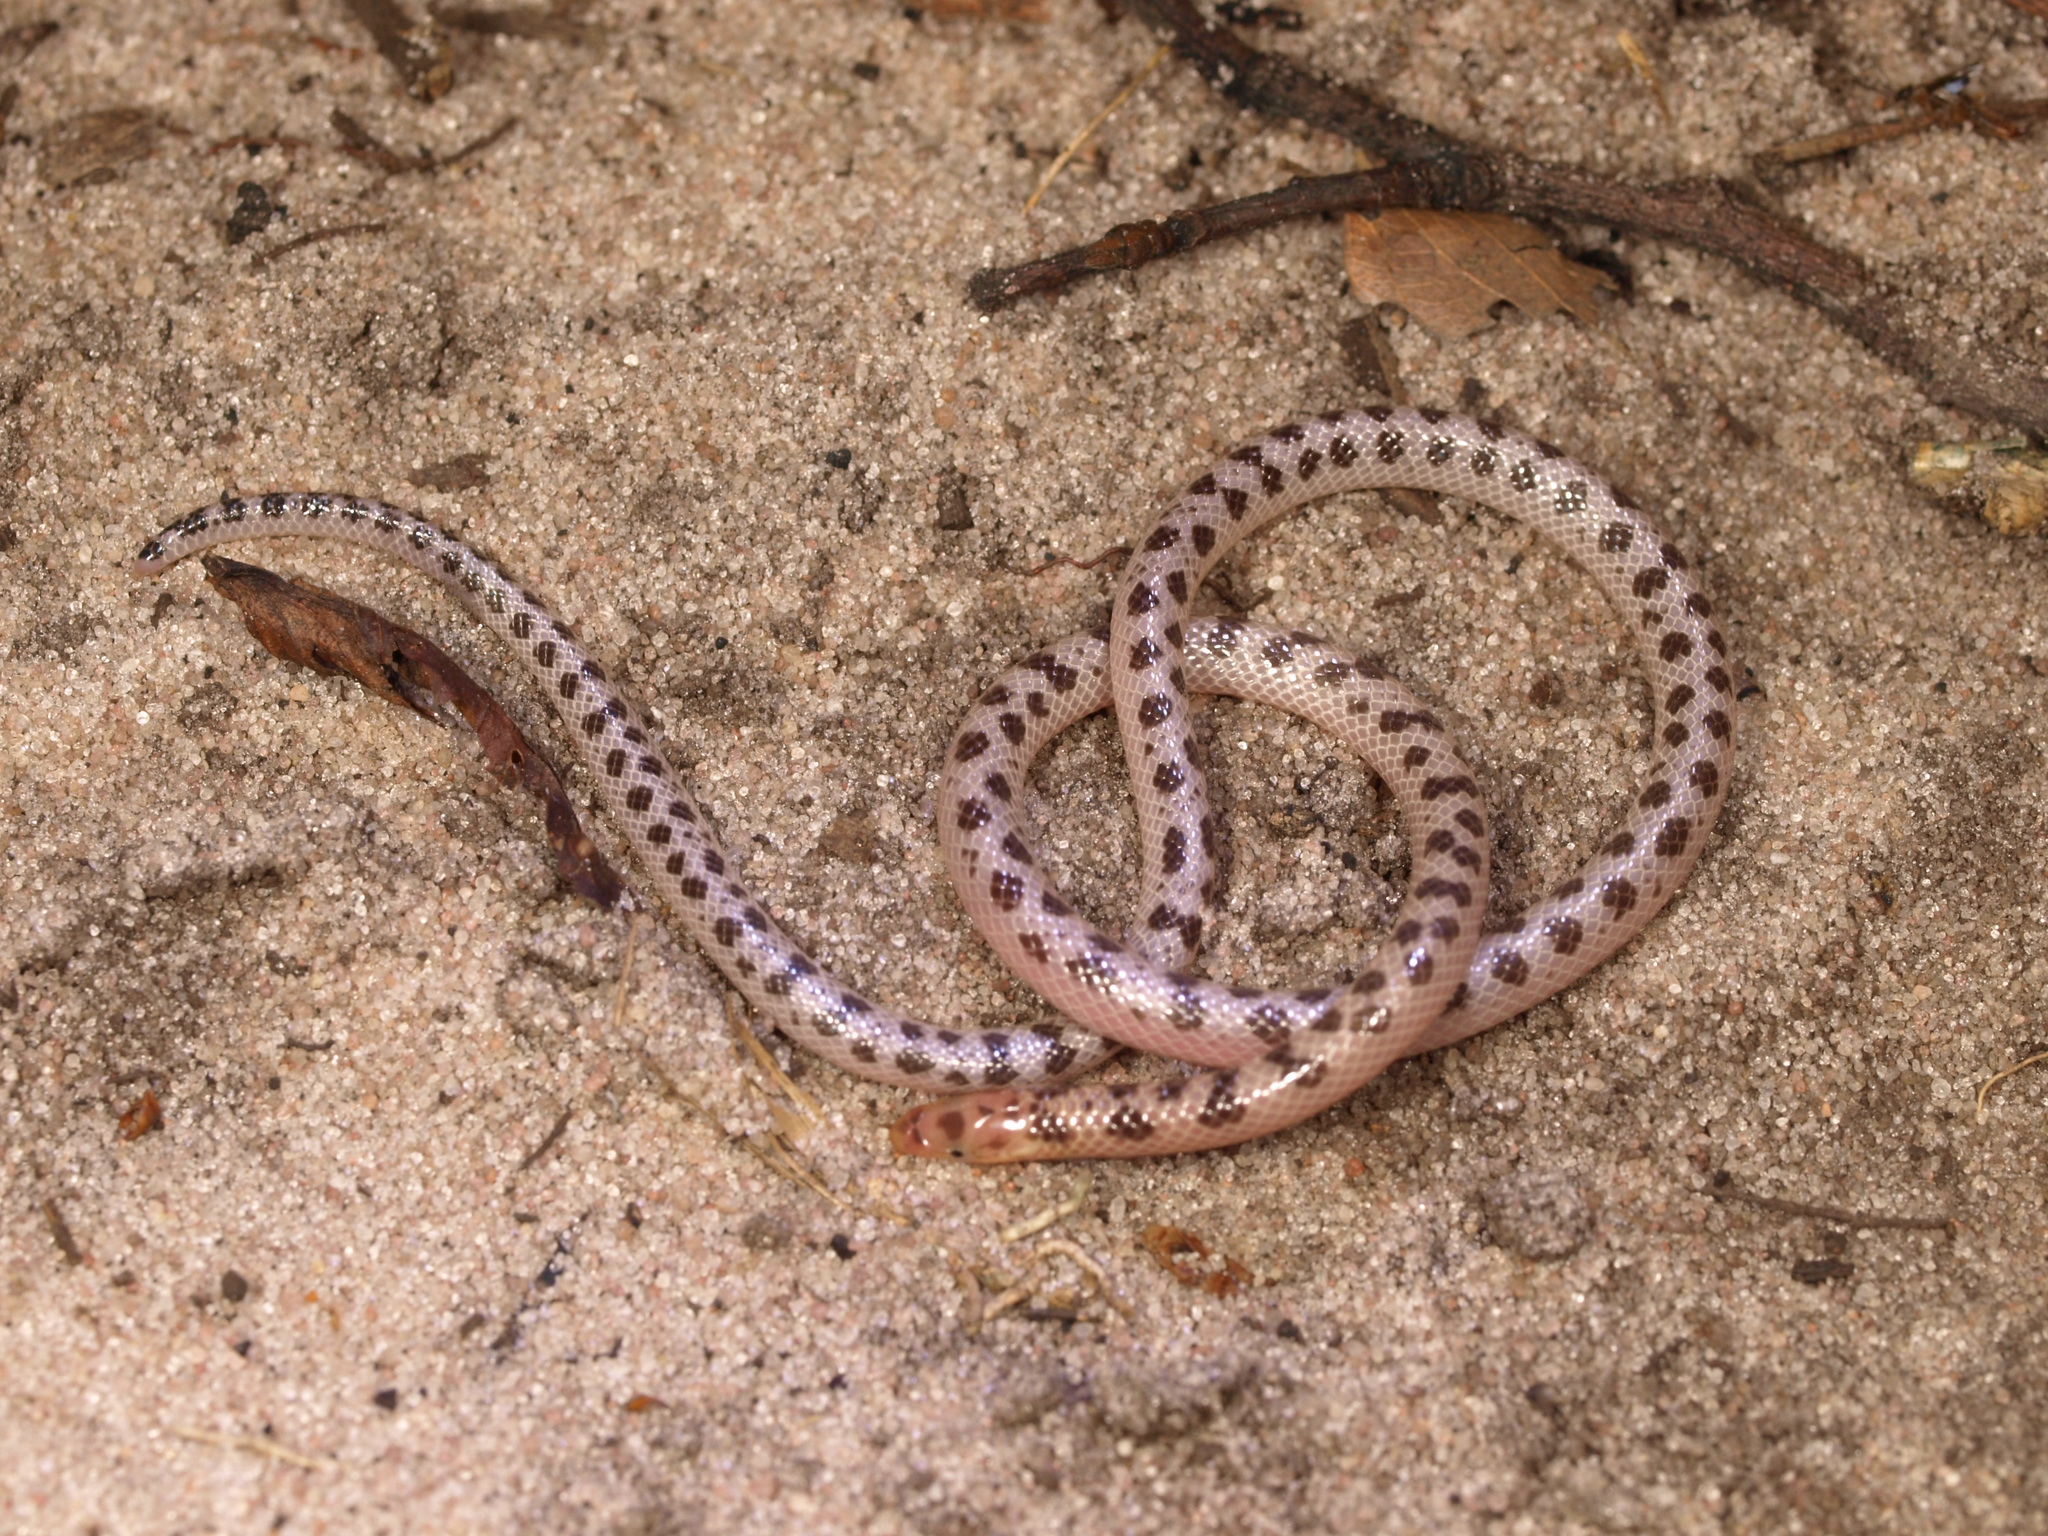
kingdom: Animalia
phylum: Chordata
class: Squamata
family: Atractaspididae
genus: Xenocalamus
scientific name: Xenocalamus mechowii
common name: Elongate quill-snouted snake
